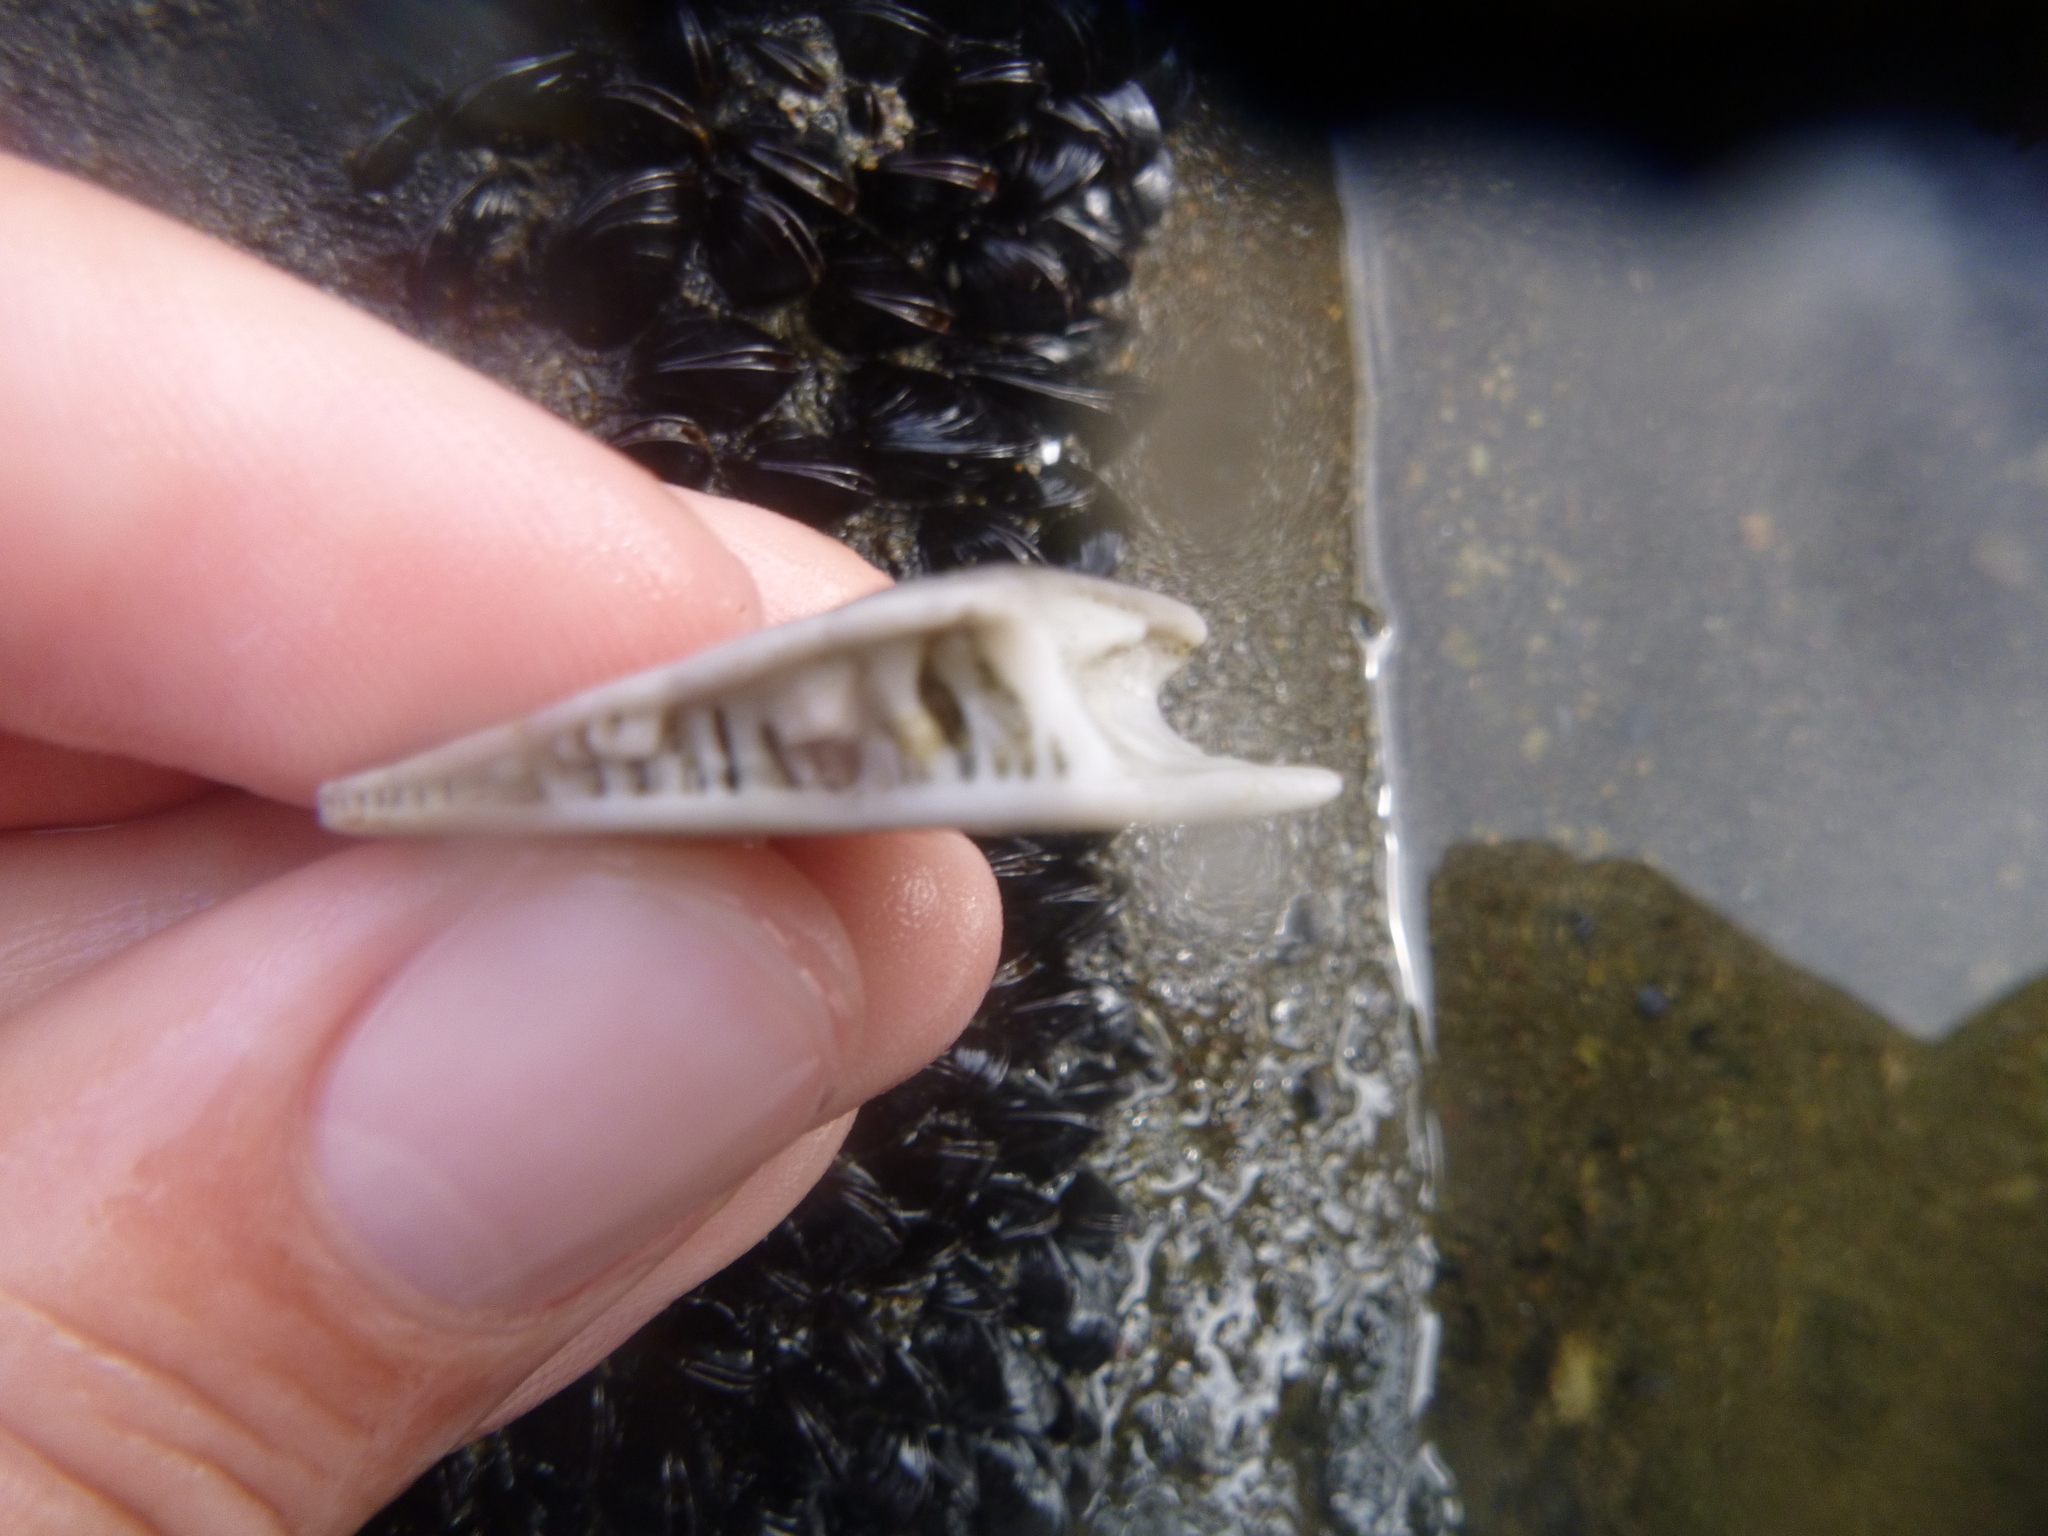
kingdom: Animalia
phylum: Echinodermata
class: Echinoidea
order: Clypeasteroida
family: Clypeasteridae
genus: Fellaster
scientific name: Fellaster zelandiae
